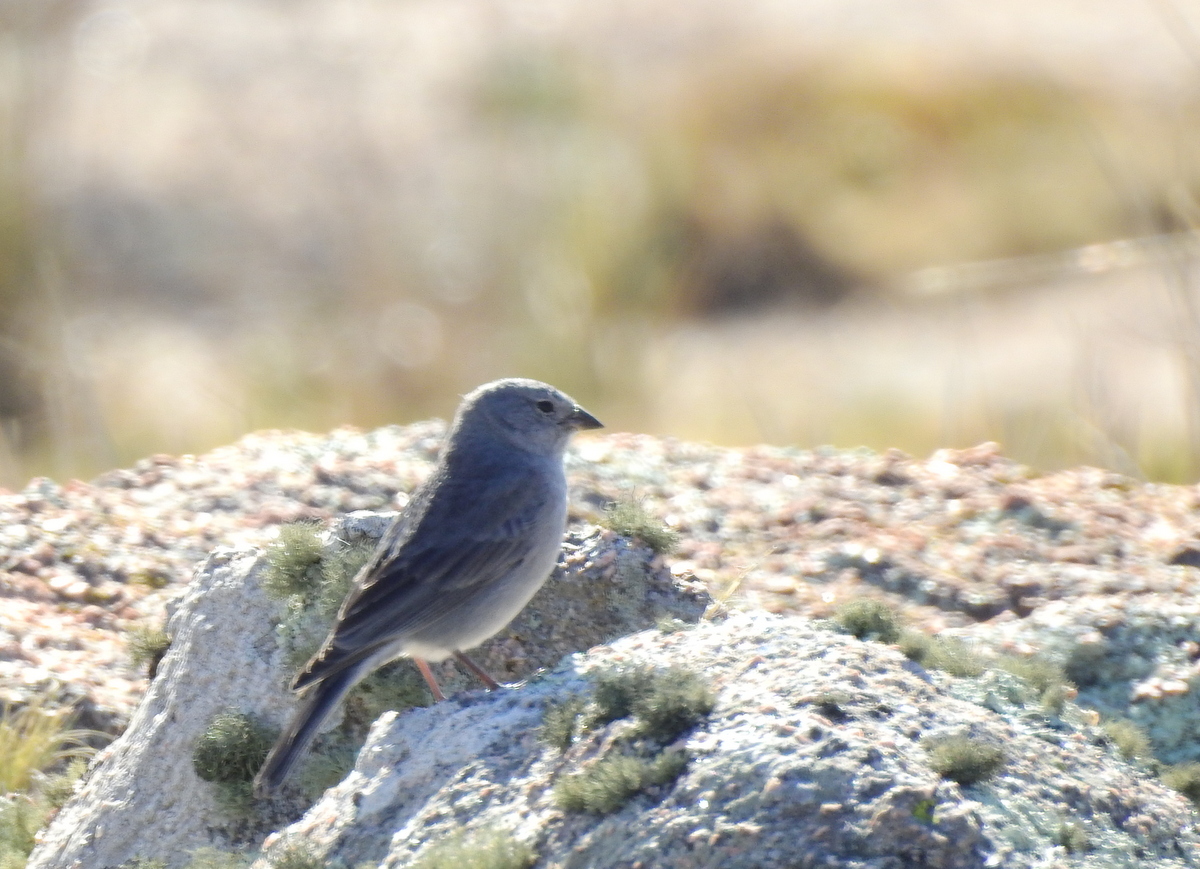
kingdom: Animalia
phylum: Chordata
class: Aves
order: Passeriformes
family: Thraupidae
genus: Geospizopsis
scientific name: Geospizopsis unicolor
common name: Plumbeous sierra-finch
